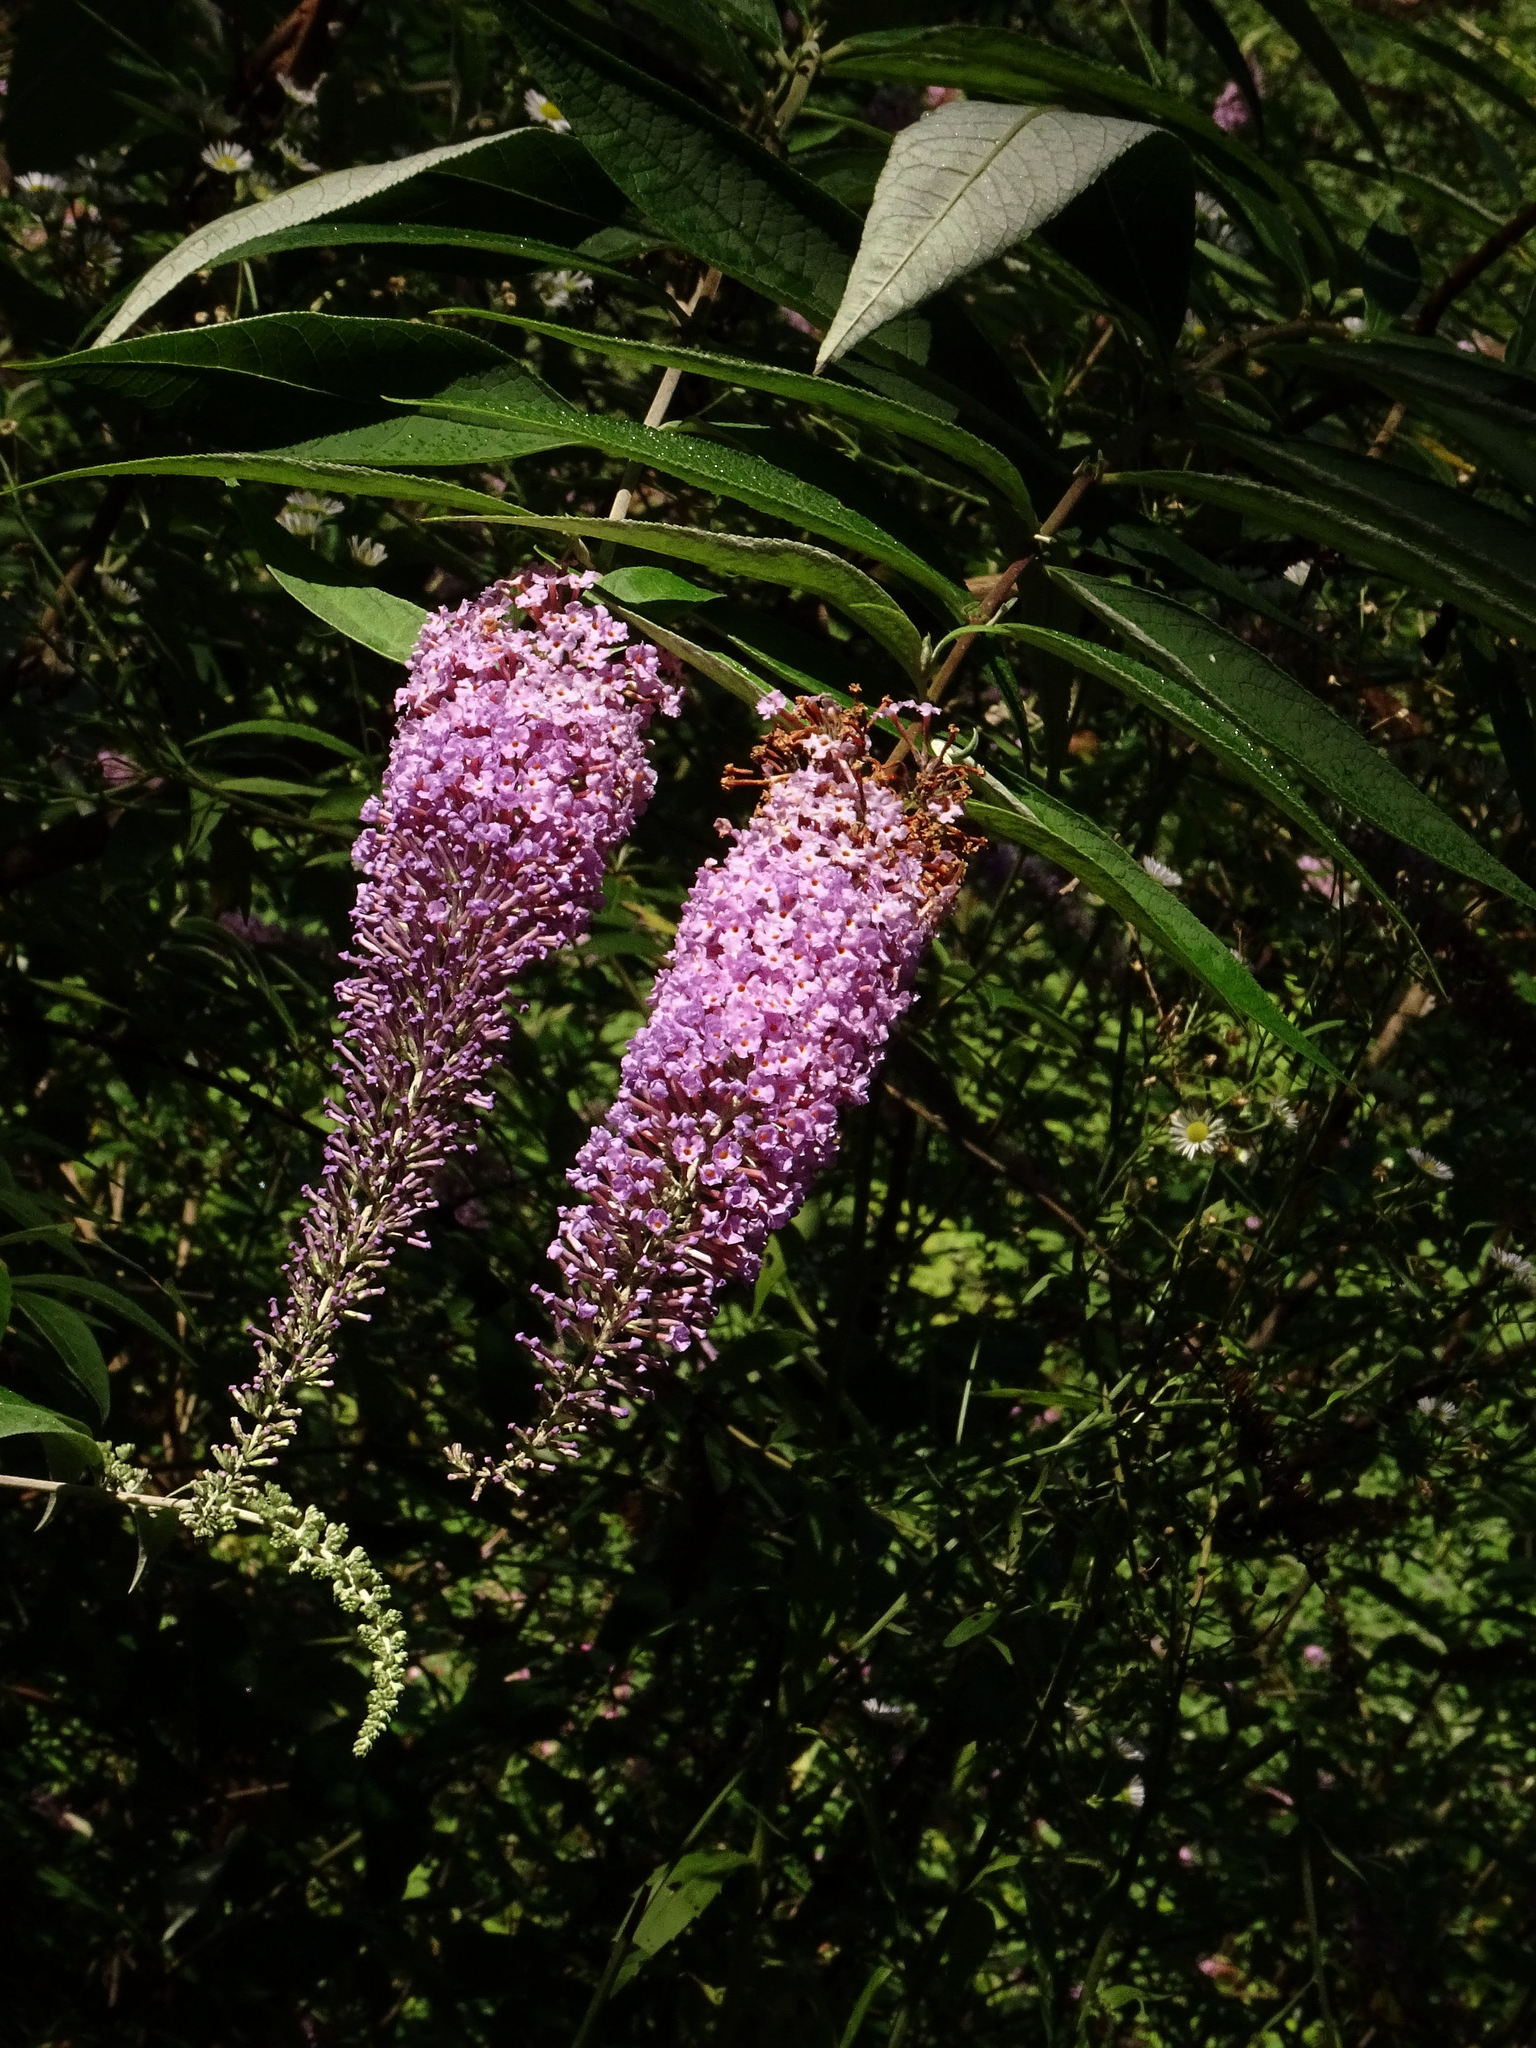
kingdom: Plantae
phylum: Tracheophyta
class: Magnoliopsida
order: Lamiales
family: Scrophulariaceae
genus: Buddleja
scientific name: Buddleja davidii
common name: Butterfly-bush
